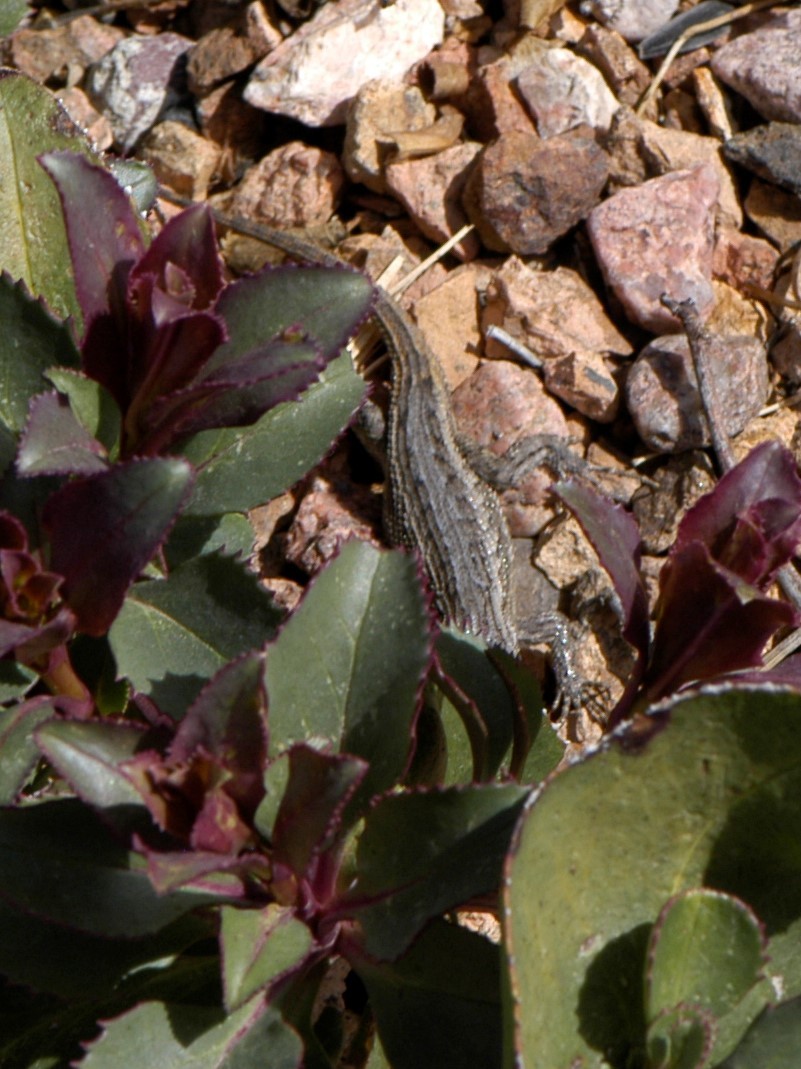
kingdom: Animalia
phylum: Chordata
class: Squamata
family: Phrynosomatidae
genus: Sceloporus
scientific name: Sceloporus cowlesi
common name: White sands prairie lizard
